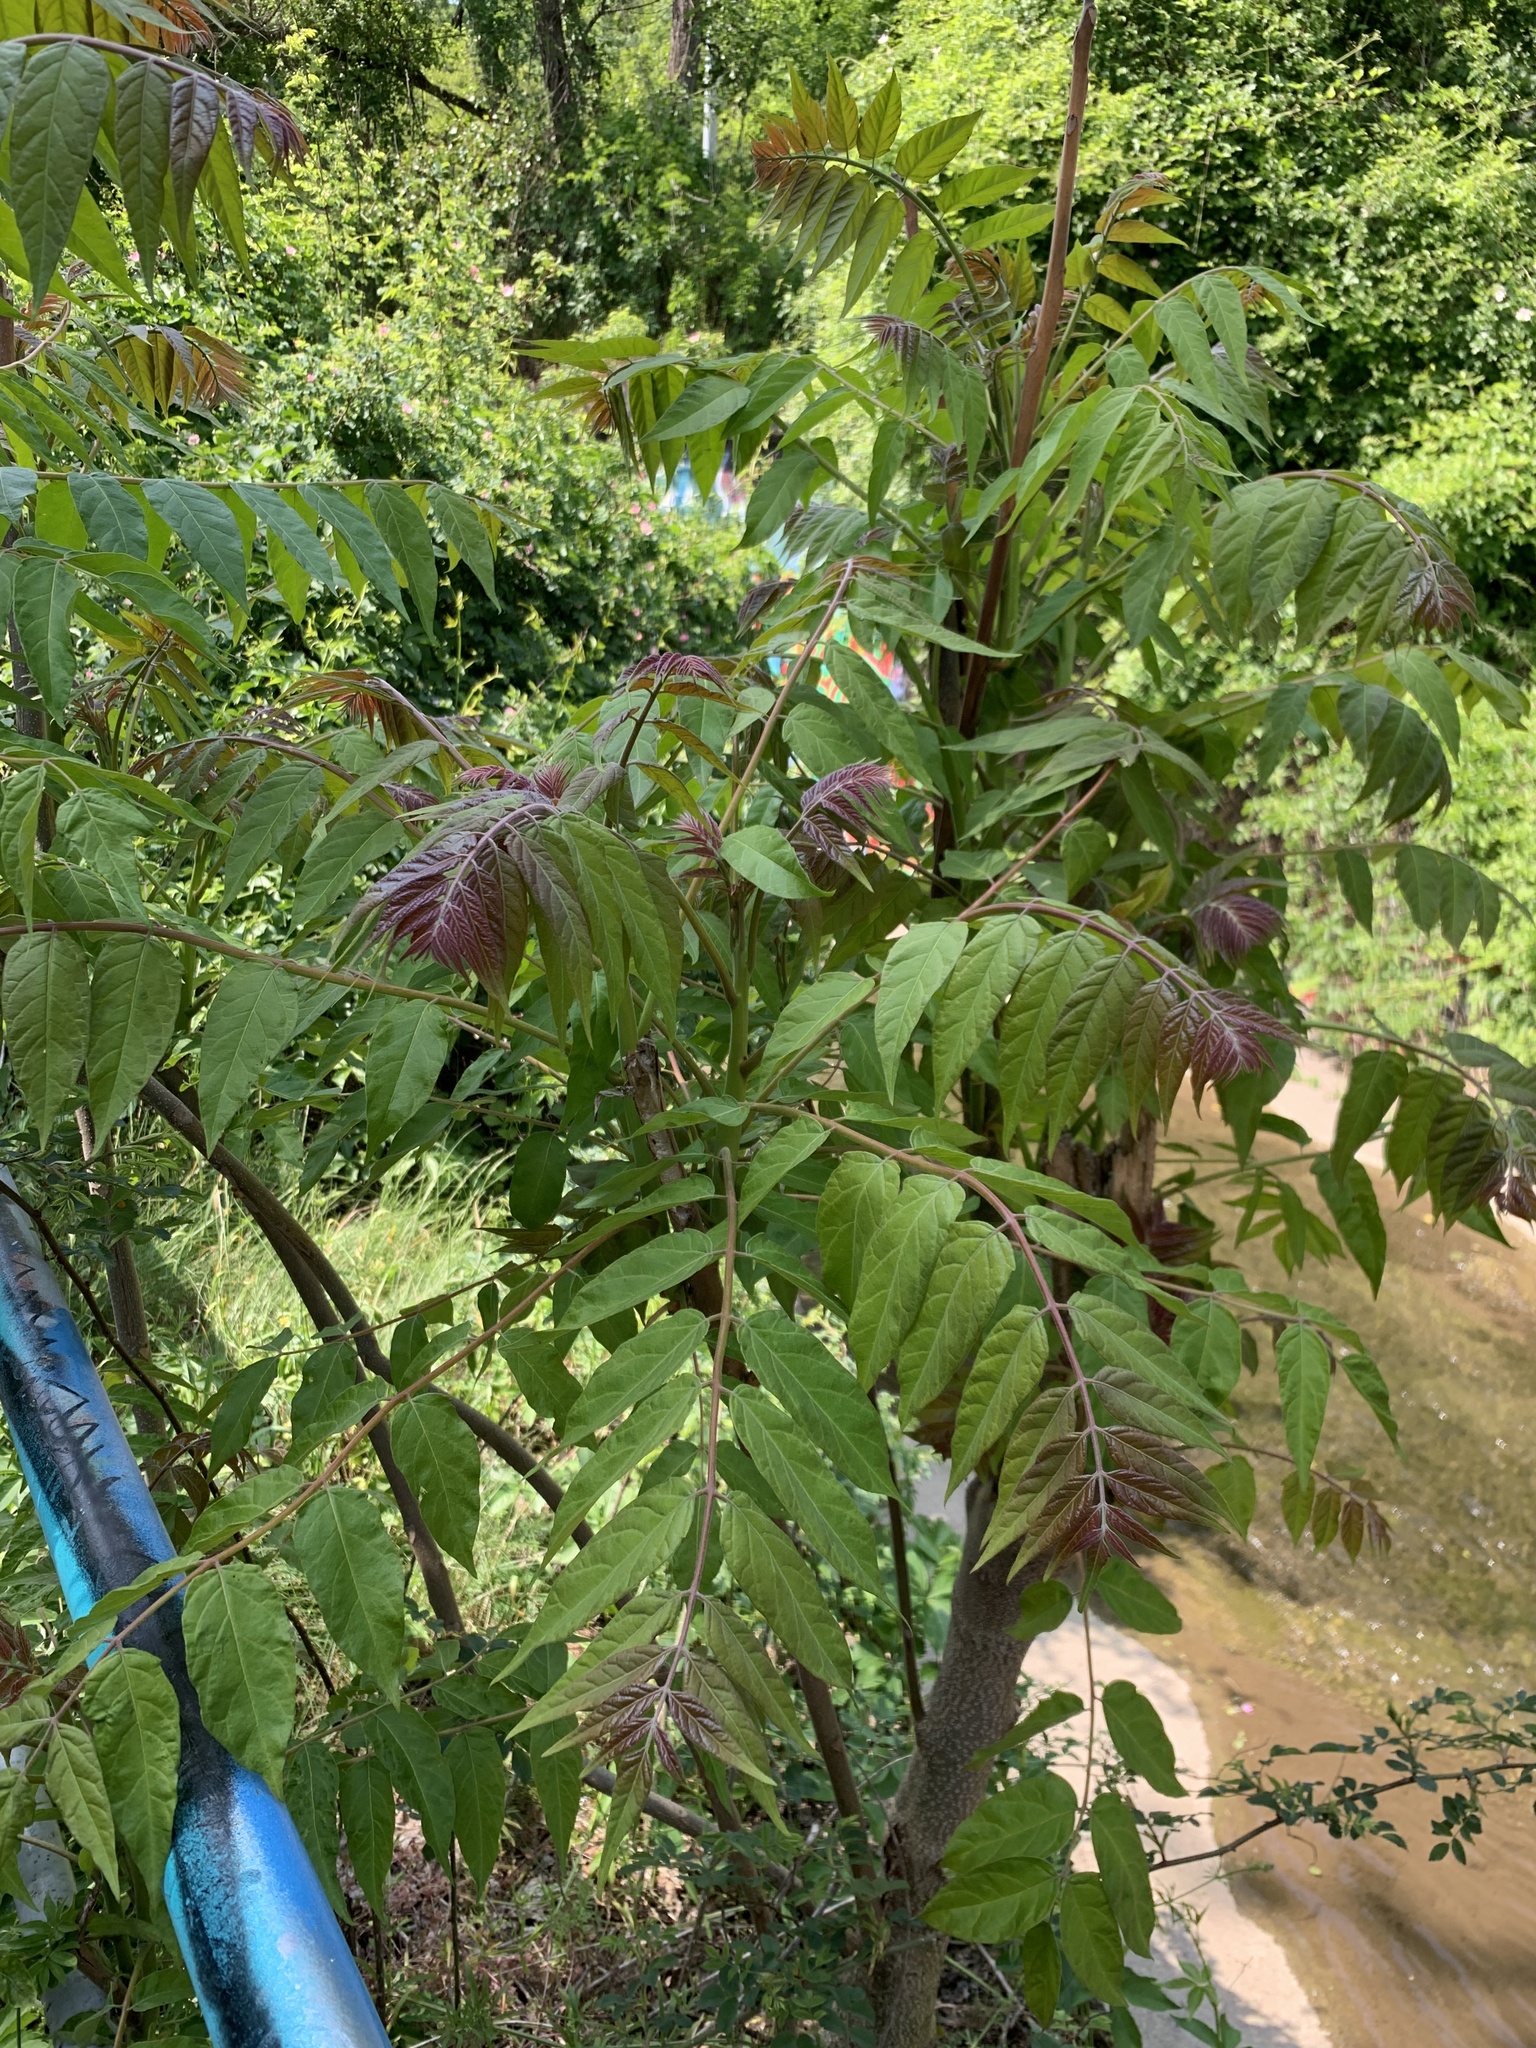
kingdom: Plantae
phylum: Tracheophyta
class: Magnoliopsida
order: Sapindales
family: Simaroubaceae
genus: Ailanthus
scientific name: Ailanthus altissima
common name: Tree-of-heaven
